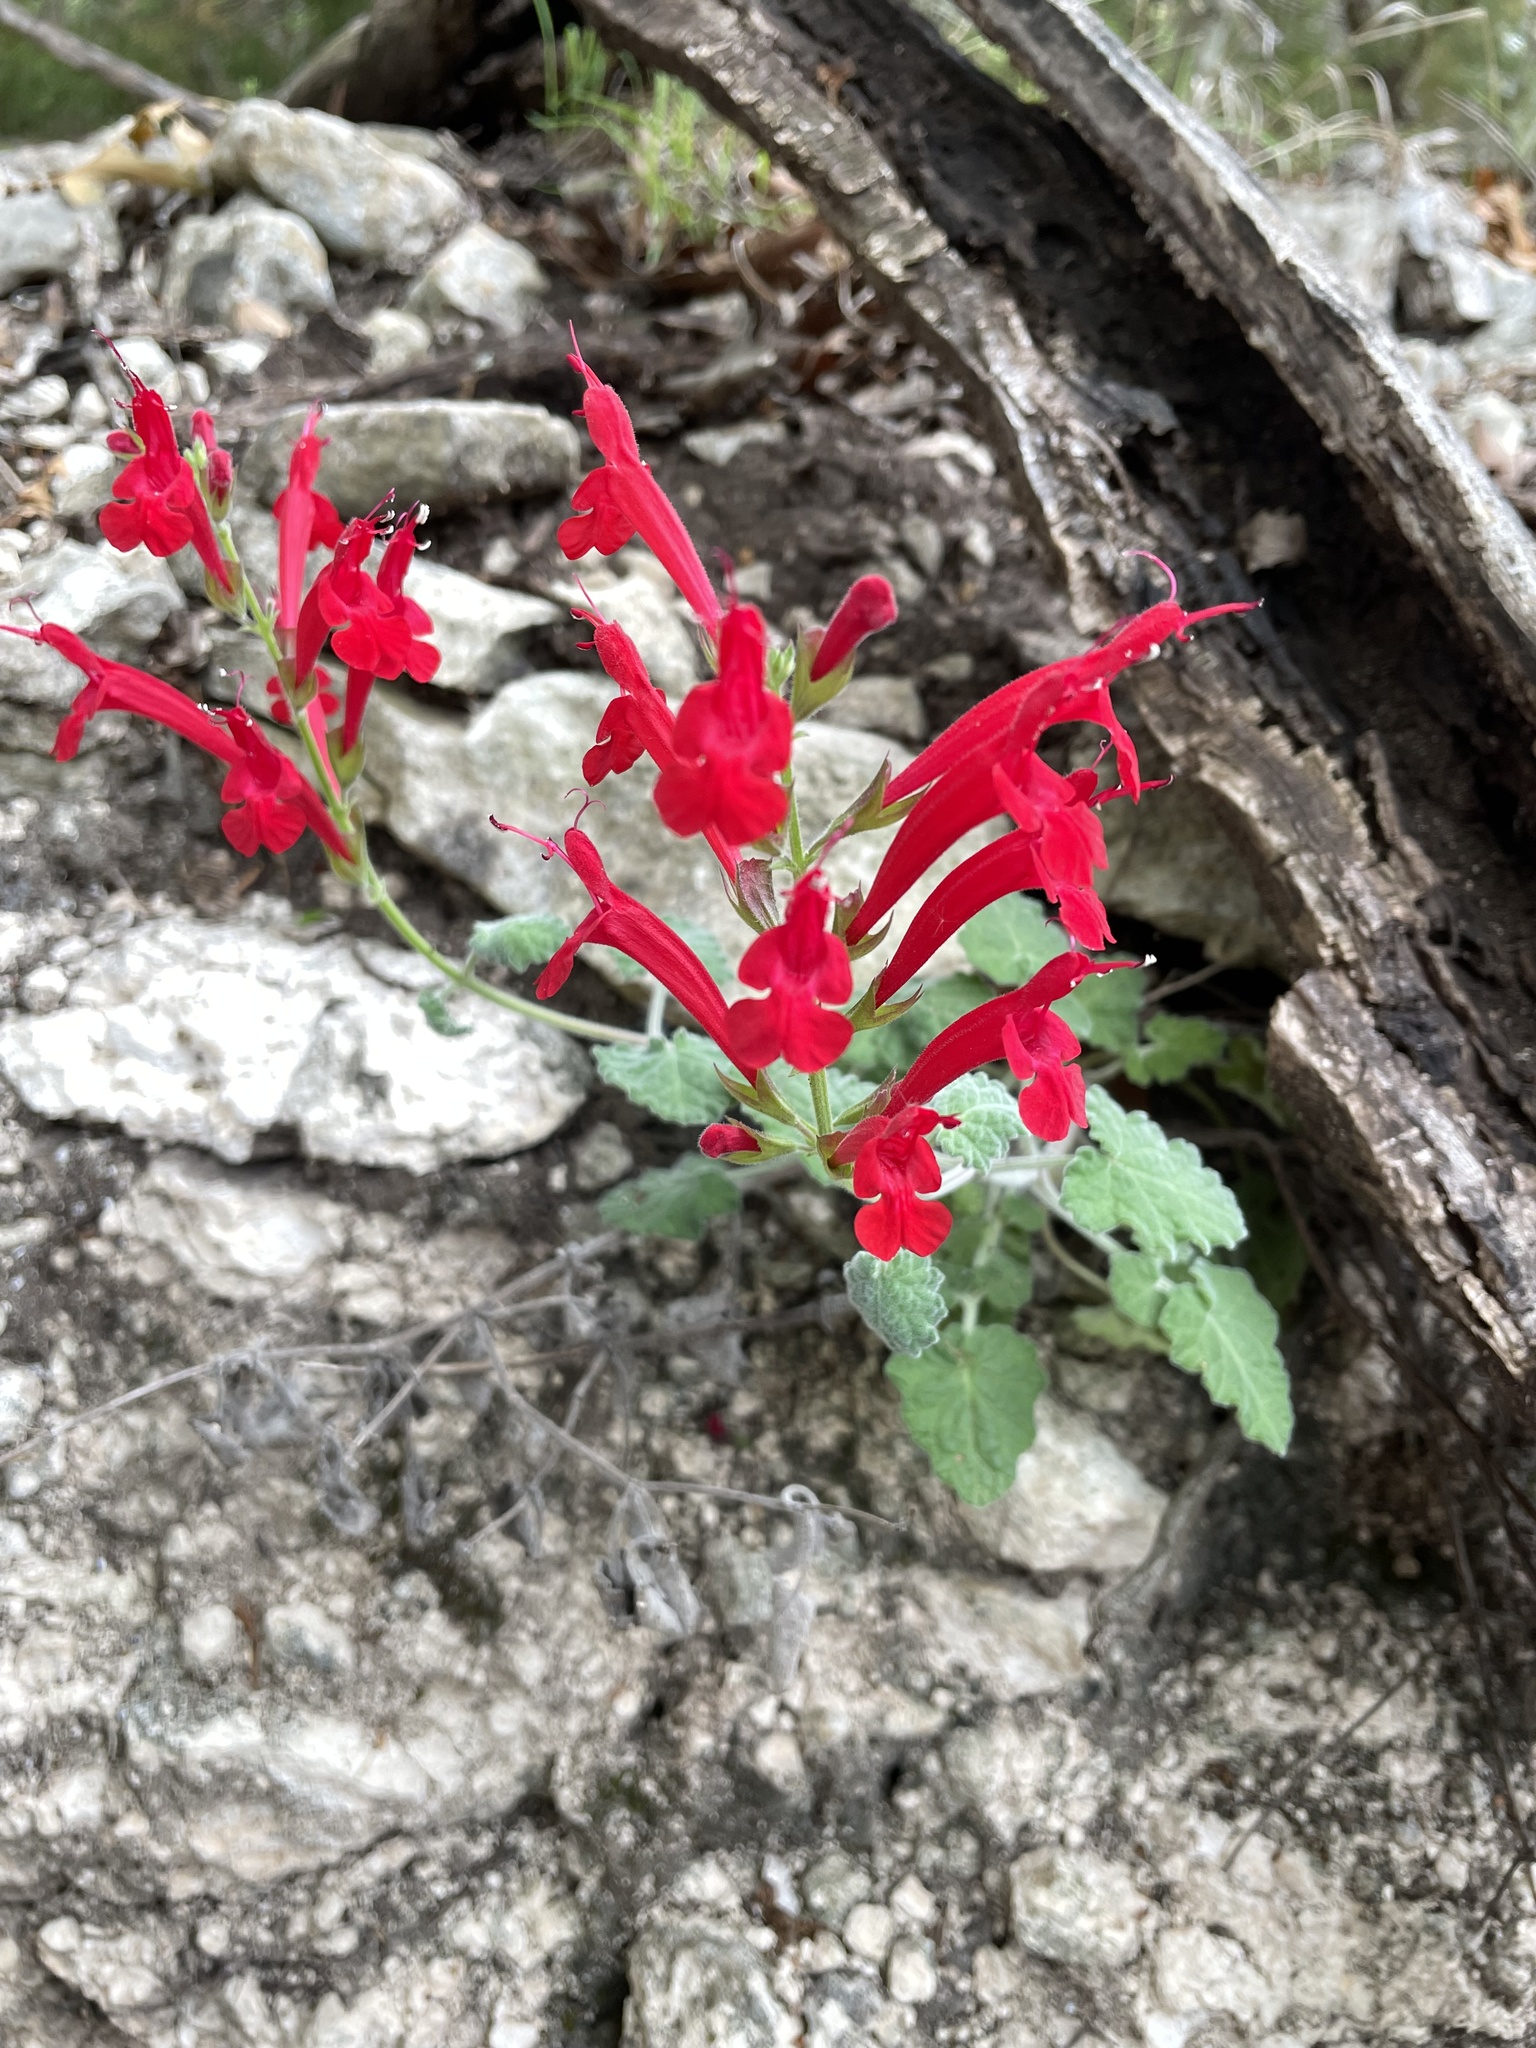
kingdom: Plantae
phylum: Tracheophyta
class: Magnoliopsida
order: Lamiales
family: Lamiaceae
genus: Salvia
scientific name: Salvia roemeriana
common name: Cedar sage
